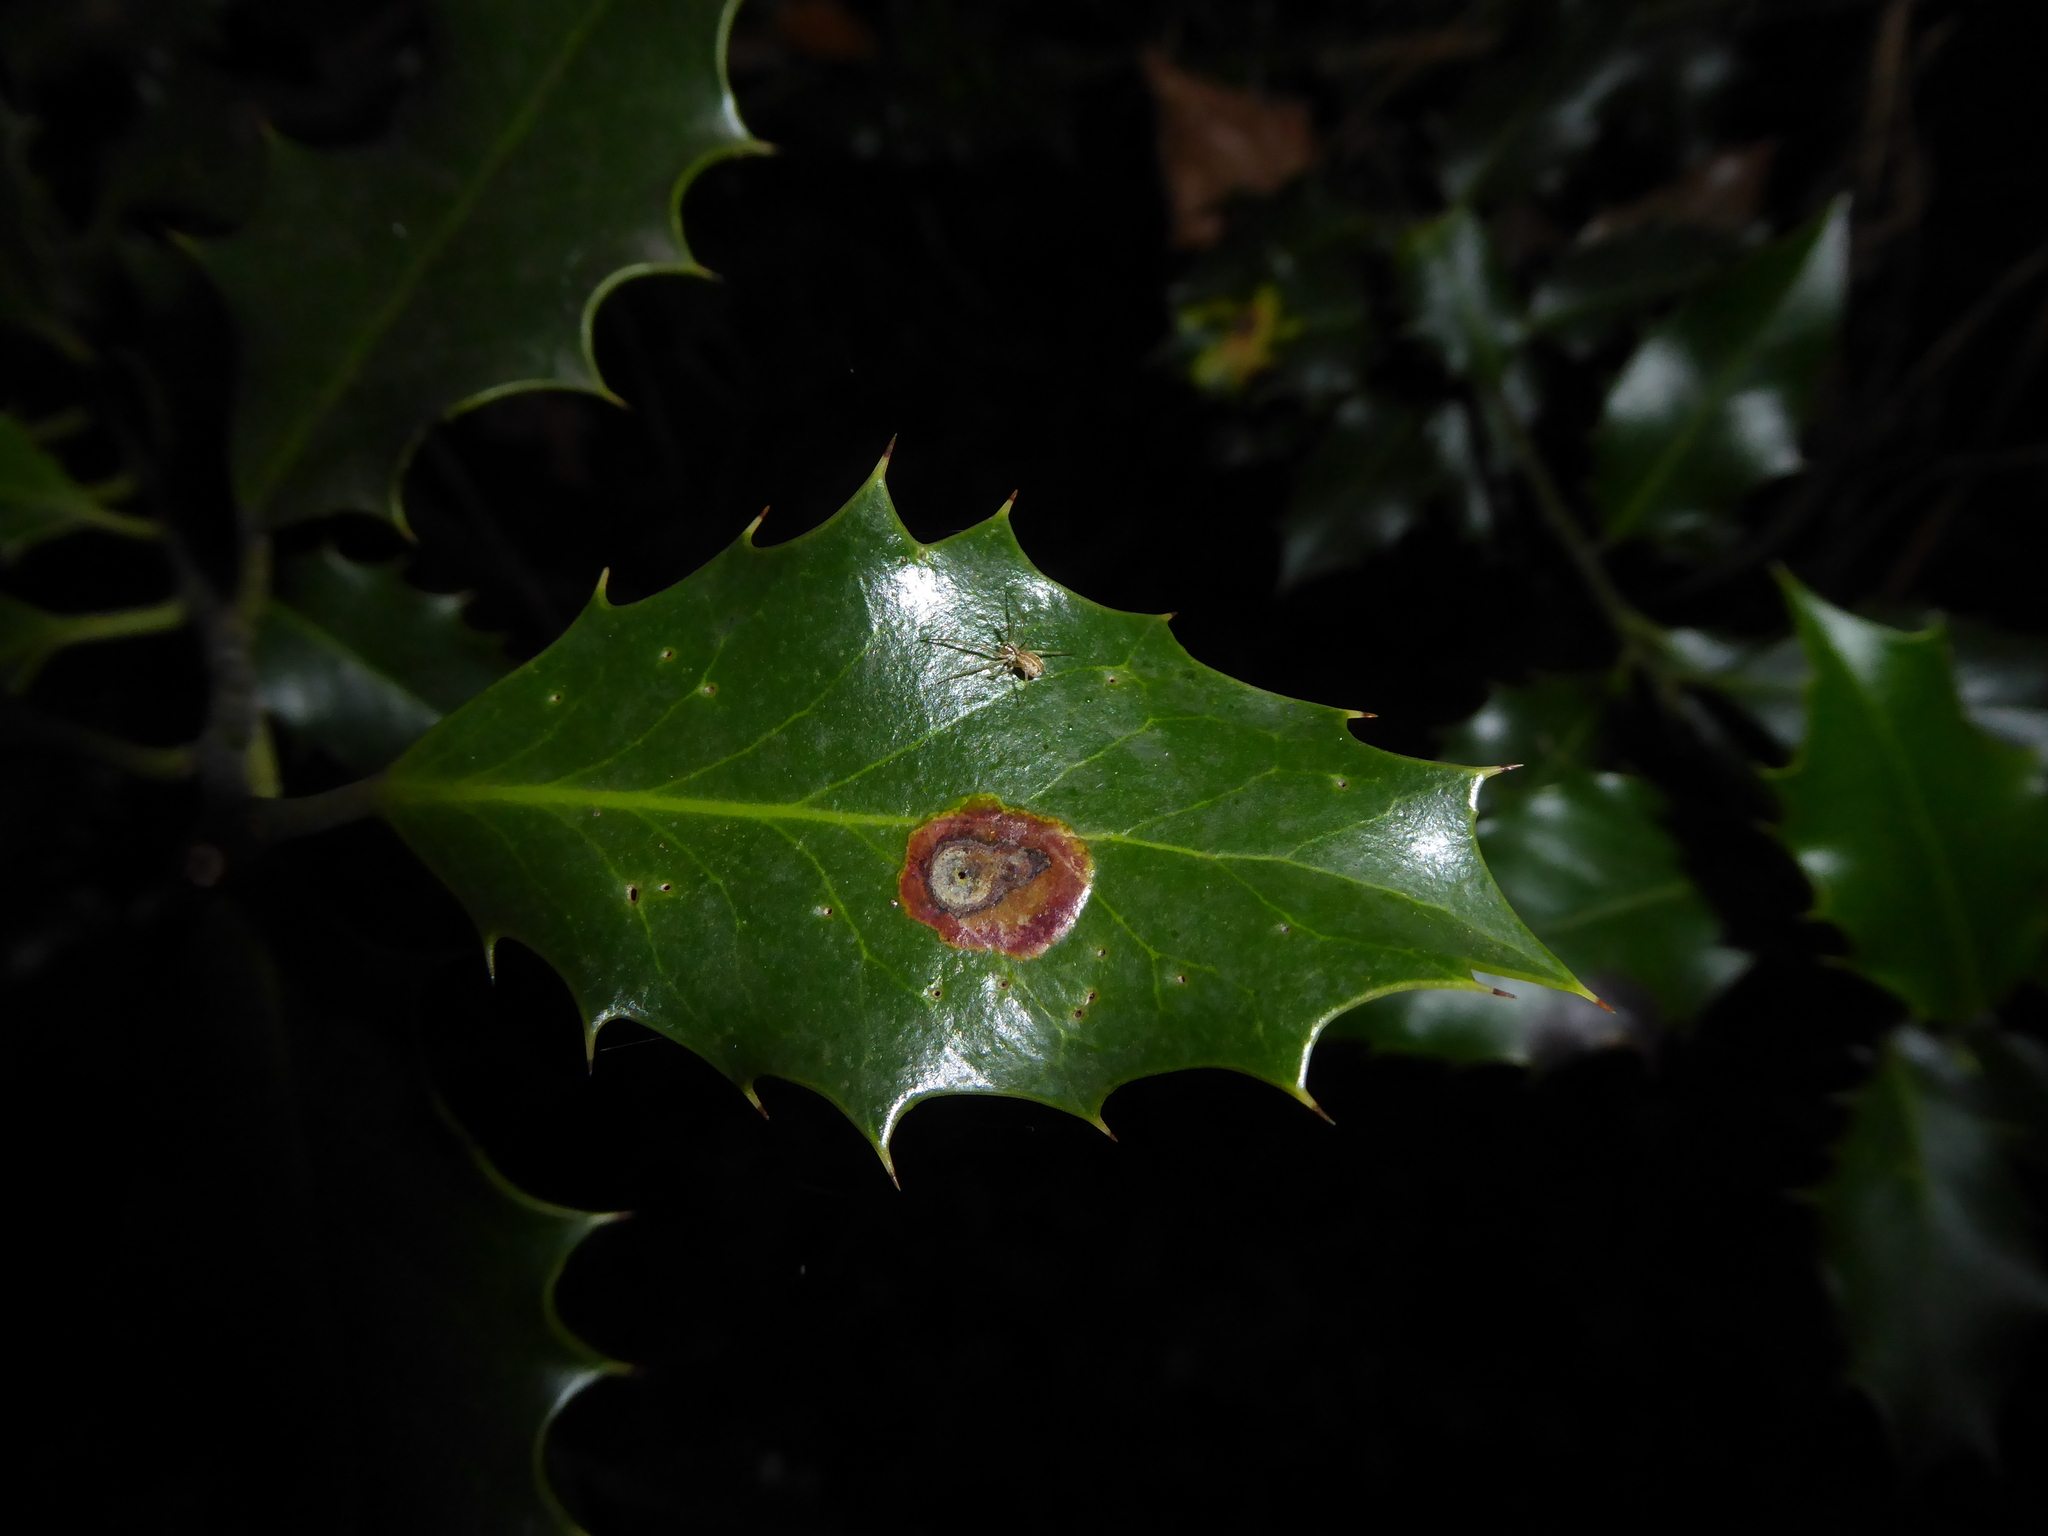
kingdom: Animalia
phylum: Arthropoda
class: Insecta
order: Diptera
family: Agromyzidae
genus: Phytomyza
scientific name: Phytomyza ilicis
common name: Holly leafminer
